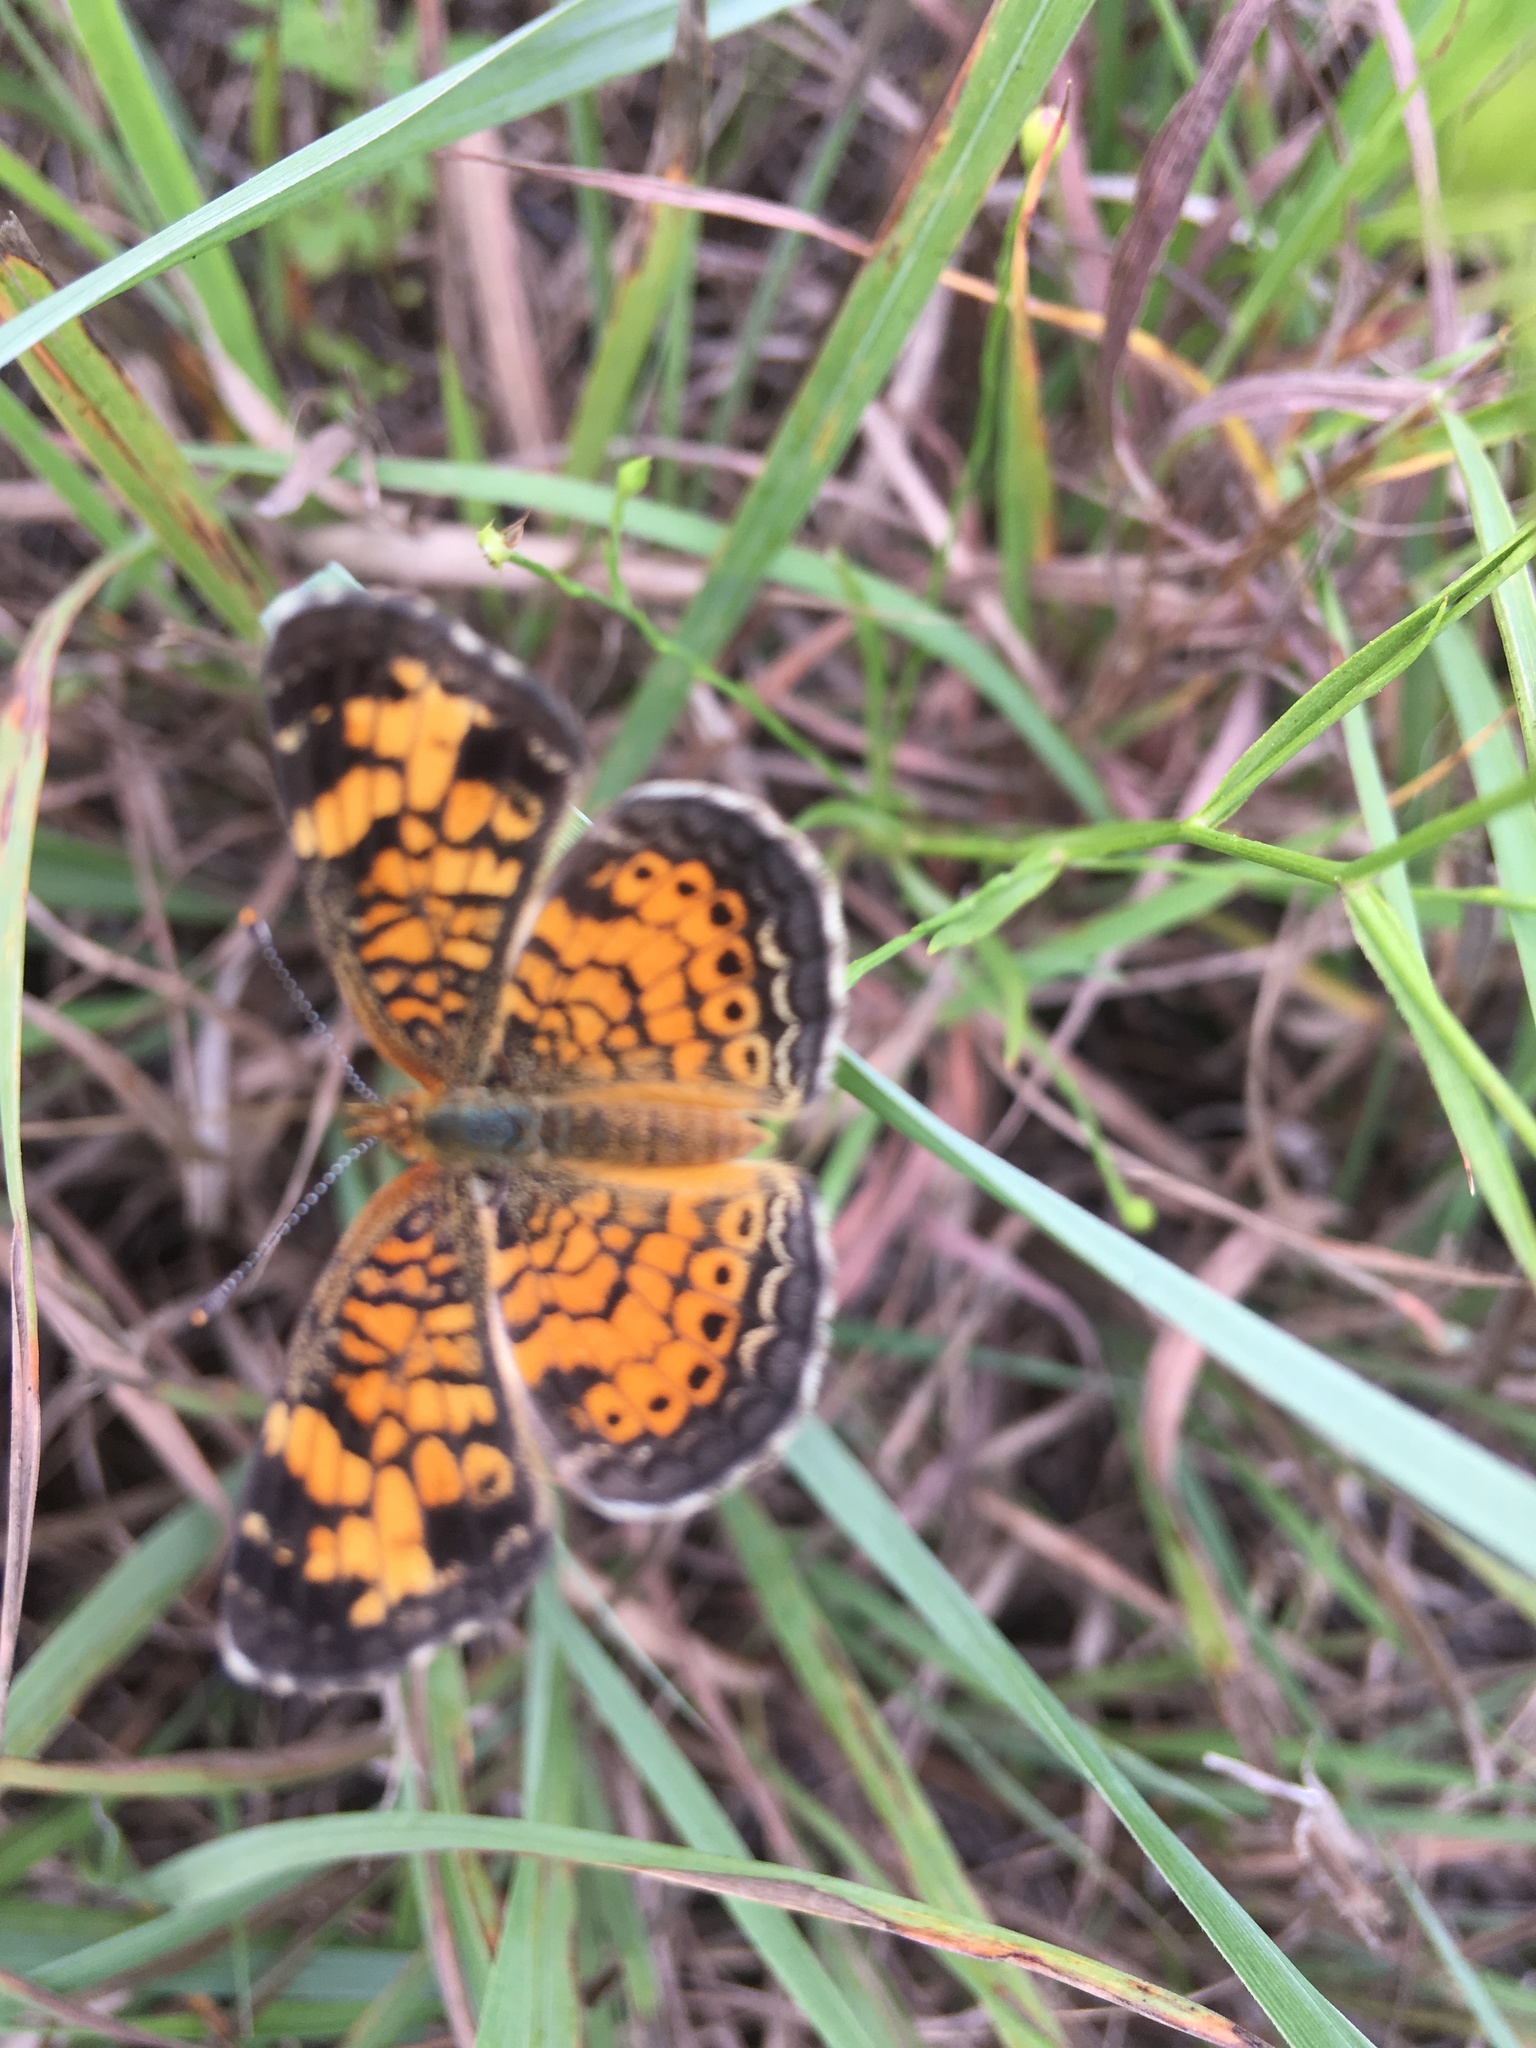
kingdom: Animalia
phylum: Arthropoda
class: Insecta
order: Lepidoptera
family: Nymphalidae
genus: Phyciodes
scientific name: Phyciodes tharos
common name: Pearl crescent
